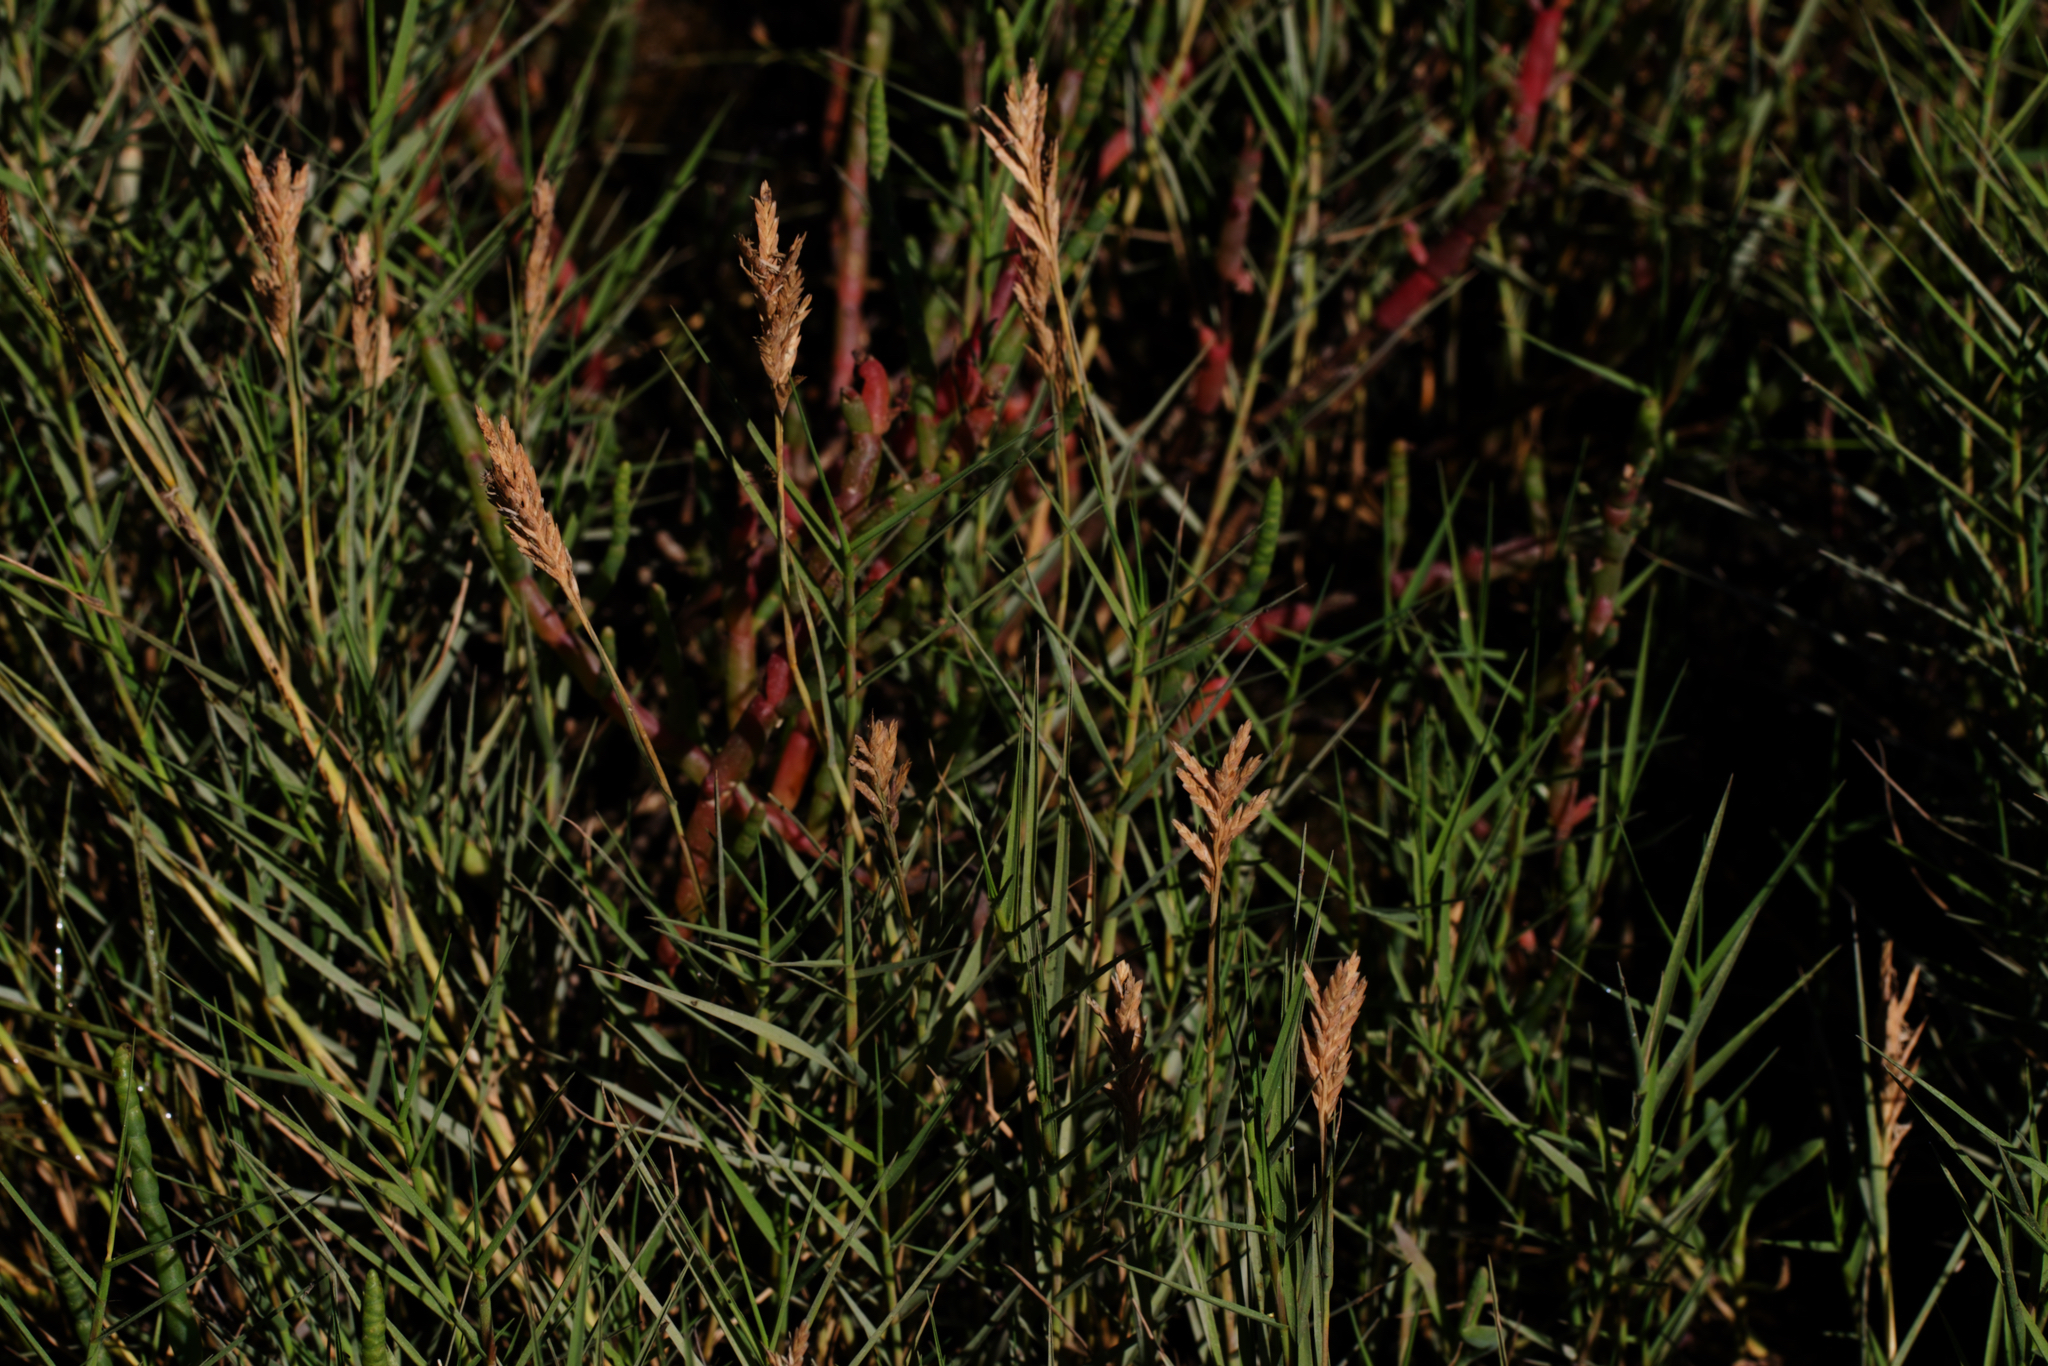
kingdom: Plantae
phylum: Tracheophyta
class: Liliopsida
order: Poales
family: Poaceae
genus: Distichlis
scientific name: Distichlis spicata
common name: Saltgrass
